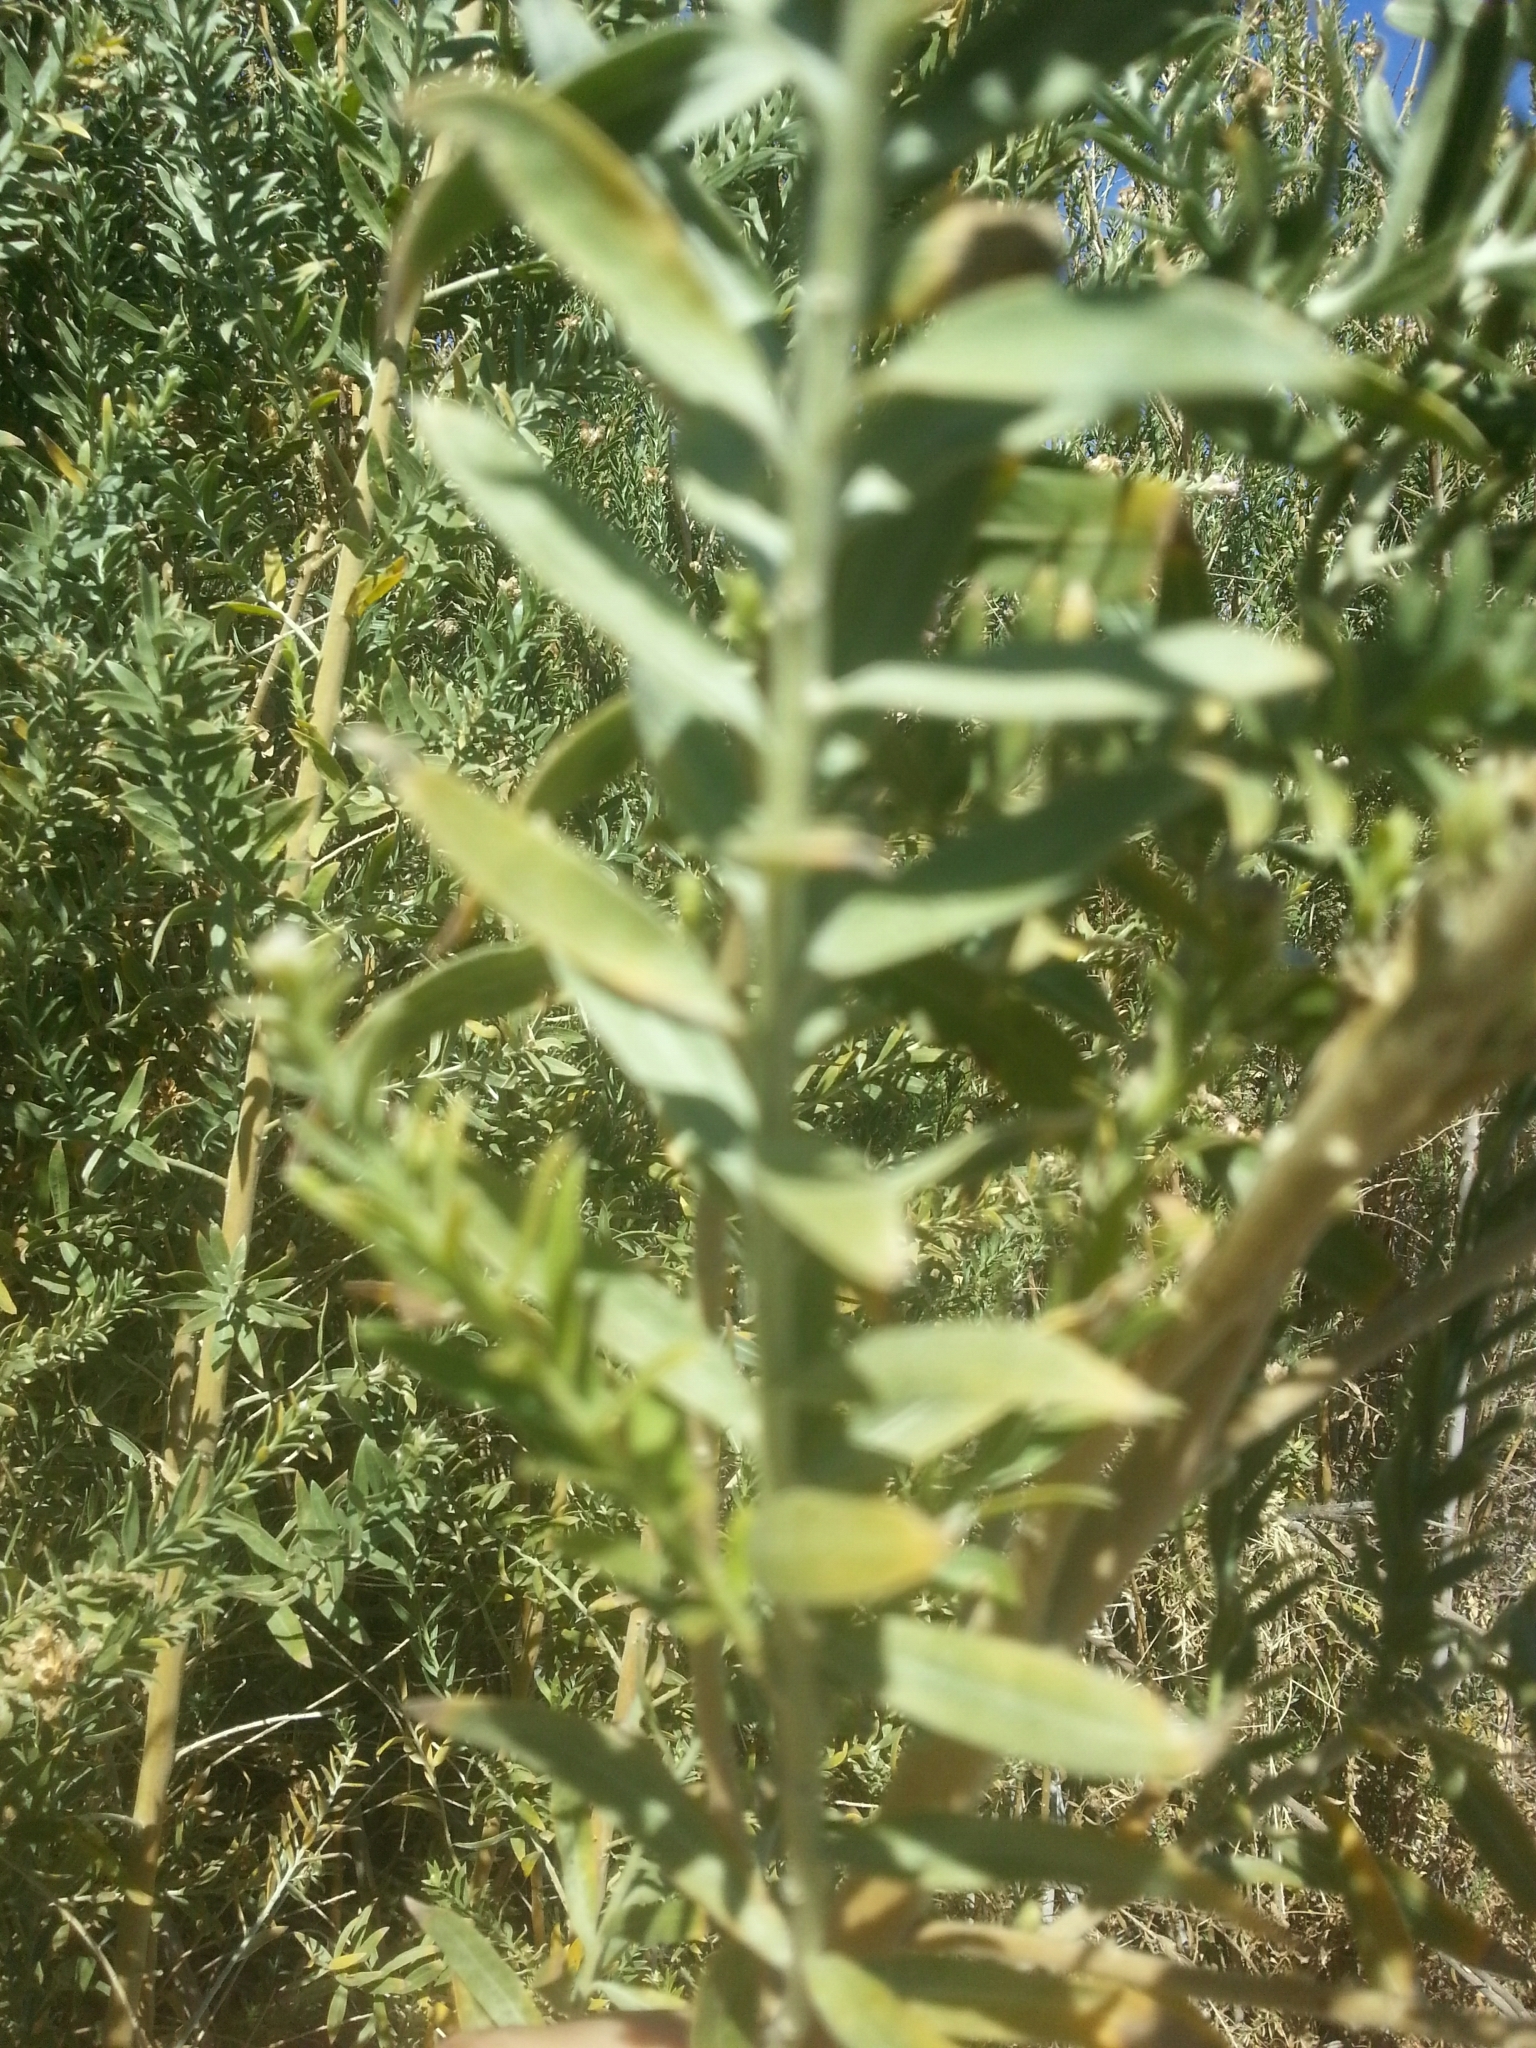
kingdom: Plantae
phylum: Tracheophyta
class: Magnoliopsida
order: Asterales
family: Asteraceae
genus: Pluchea
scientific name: Pluchea sericea
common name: Arrow-weed
